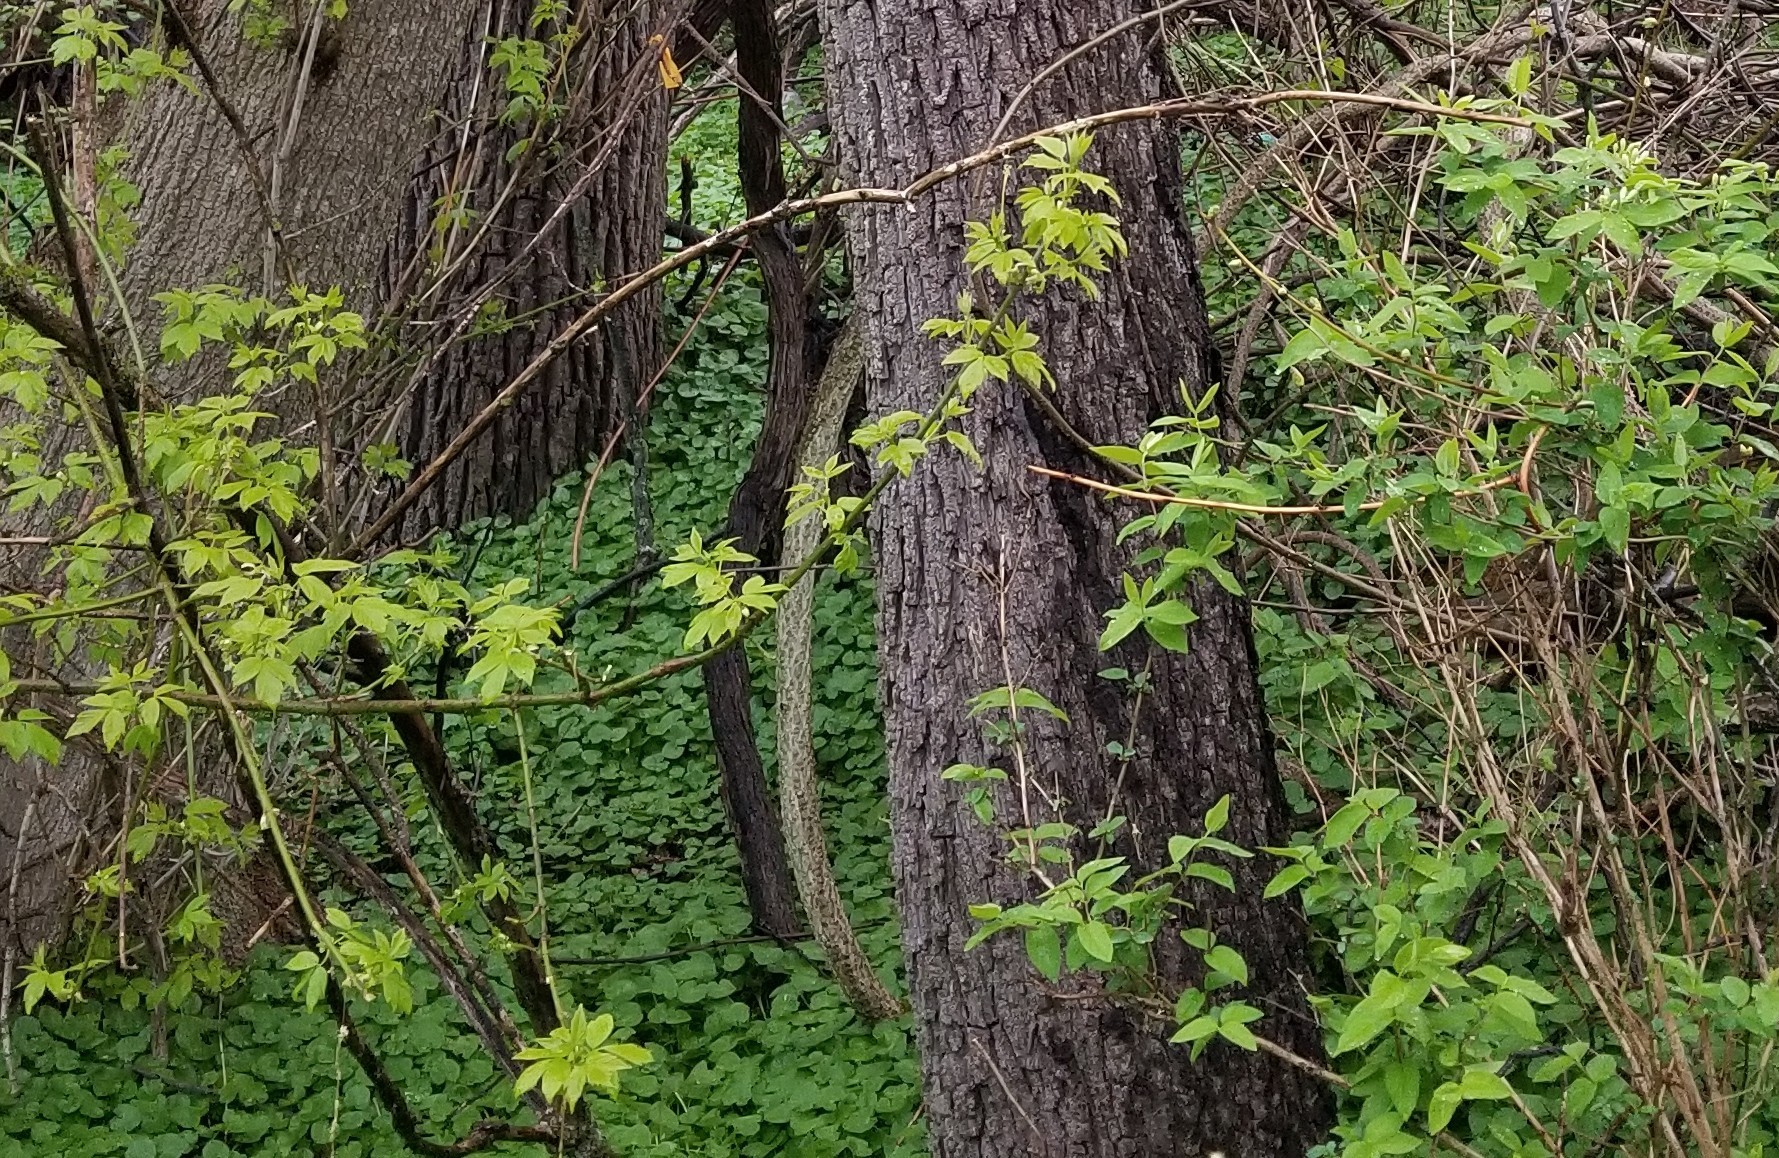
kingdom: Plantae
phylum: Tracheophyta
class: Magnoliopsida
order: Sapindales
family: Sapindaceae
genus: Acer
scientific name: Acer negundo
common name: Ashleaf maple
